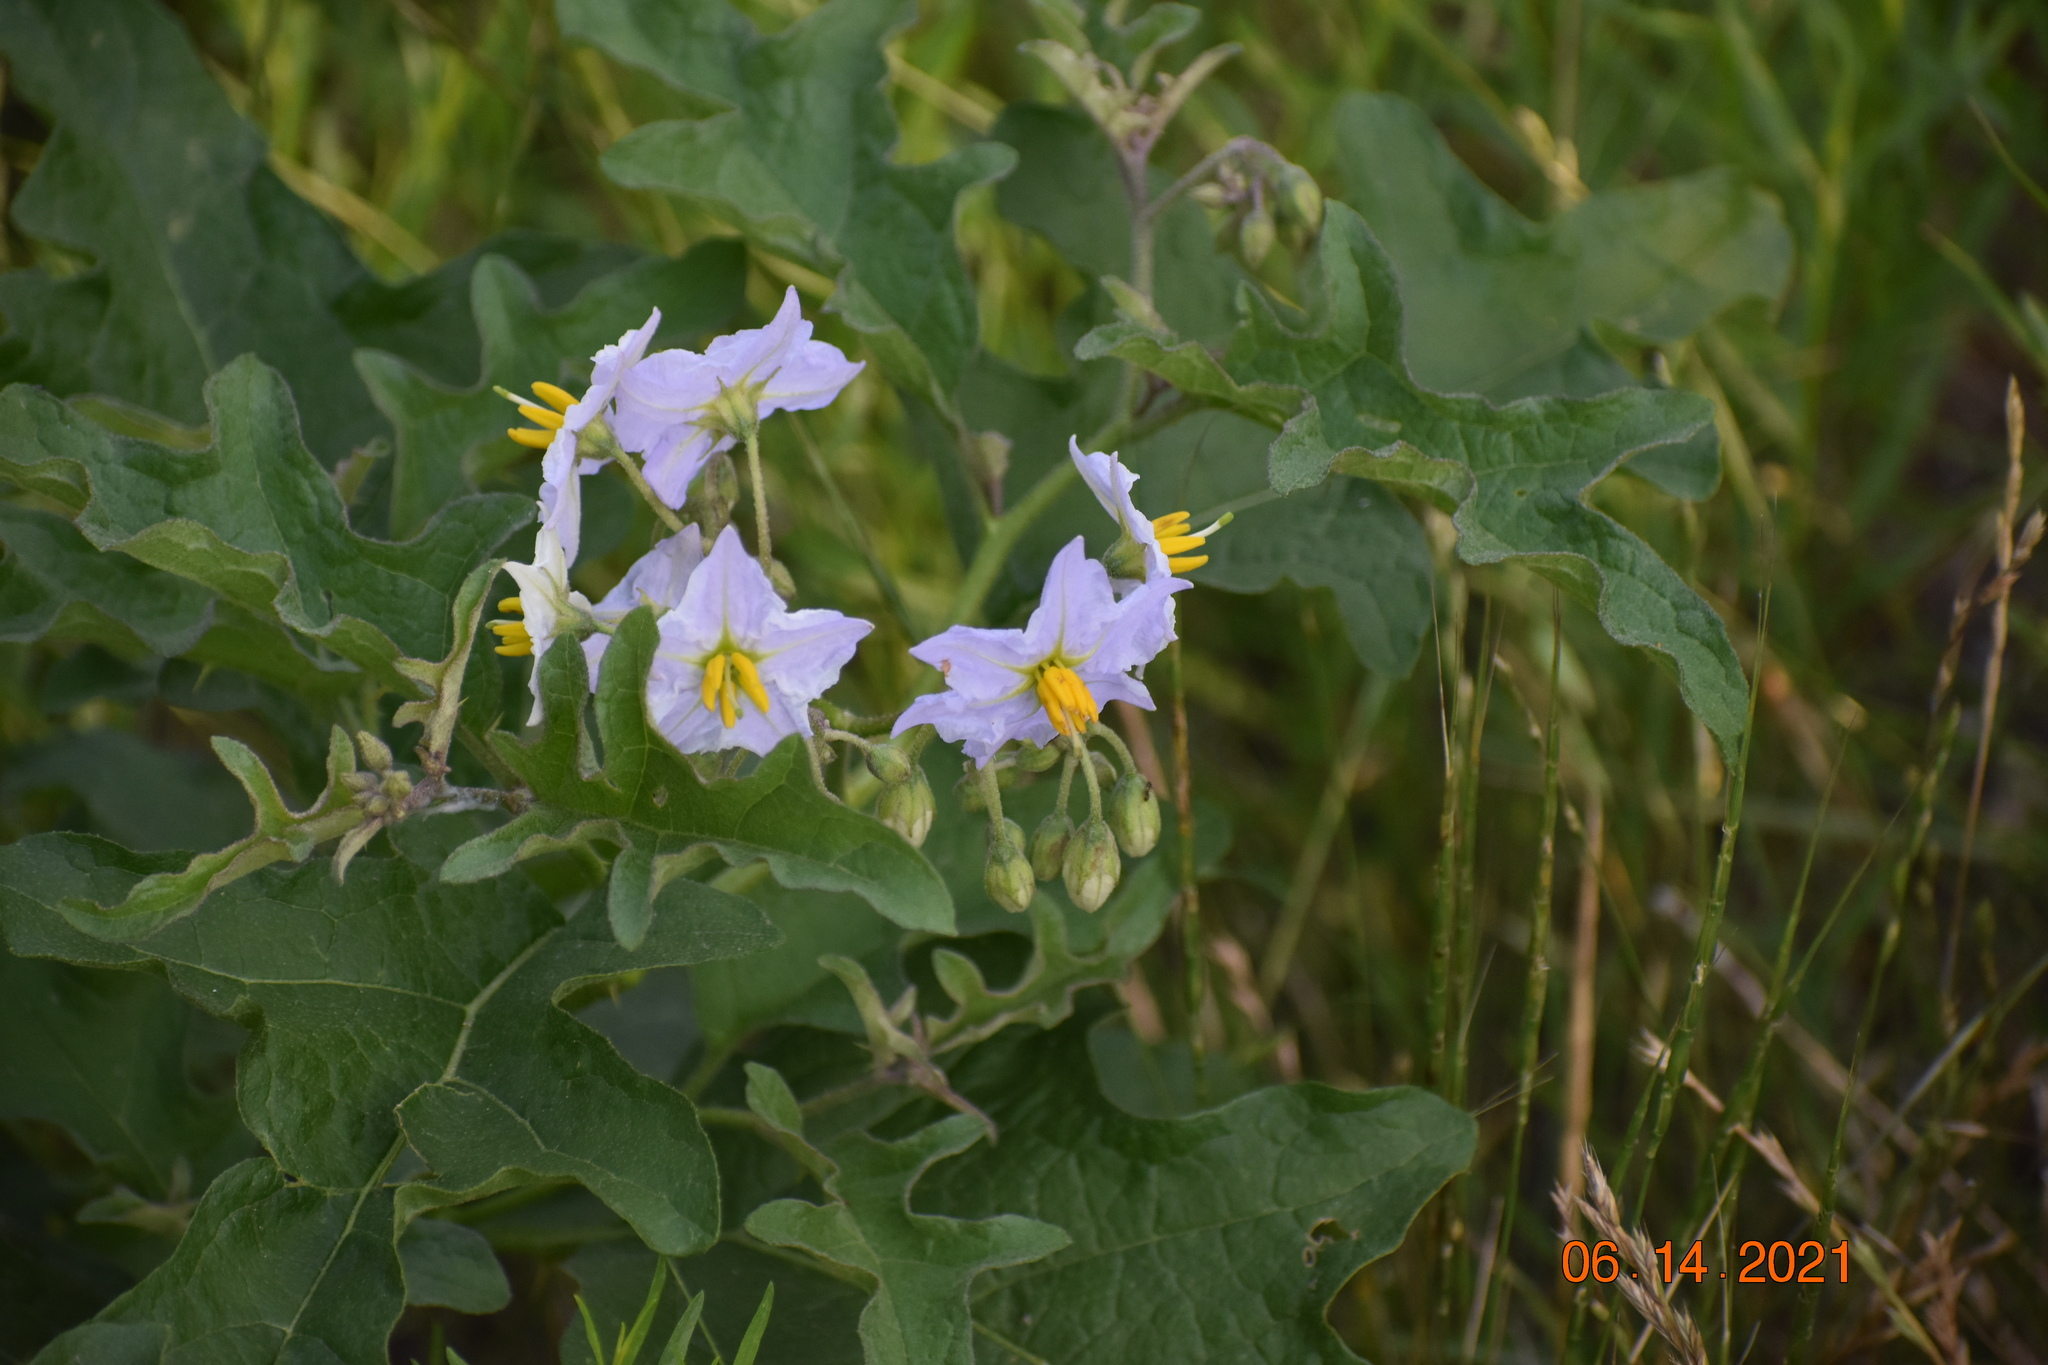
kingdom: Plantae
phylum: Tracheophyta
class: Magnoliopsida
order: Solanales
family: Solanaceae
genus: Solanum
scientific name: Solanum dimidiatum
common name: Carolina horse-nettle
